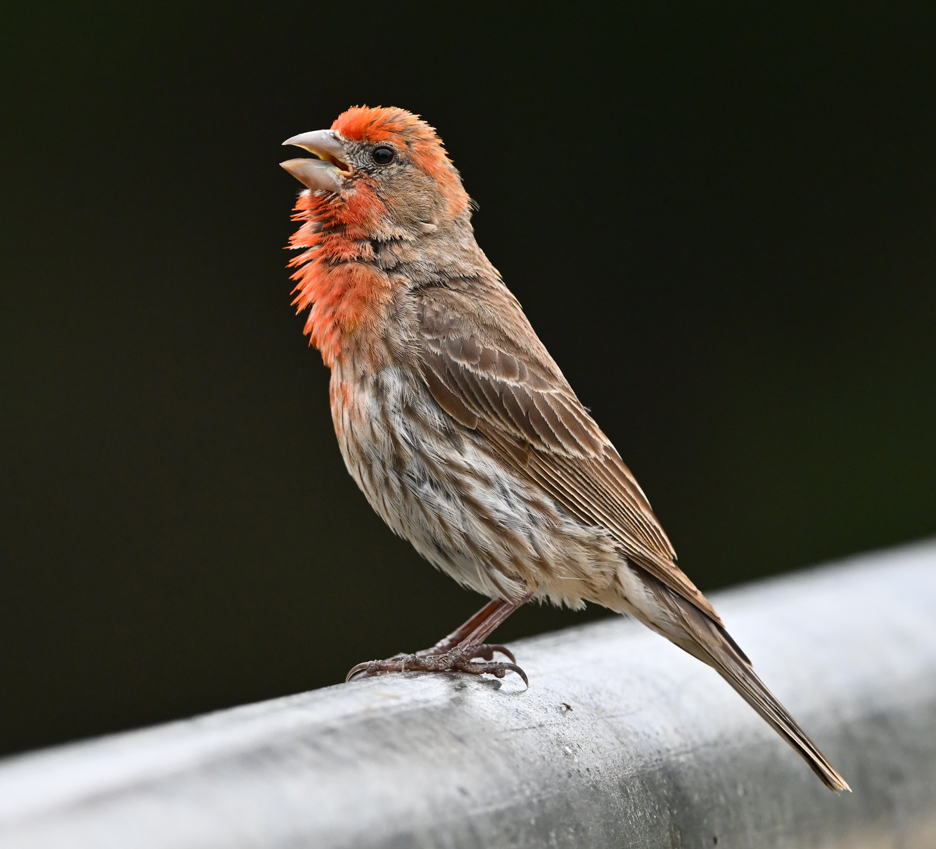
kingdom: Animalia
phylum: Chordata
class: Aves
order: Passeriformes
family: Fringillidae
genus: Haemorhous
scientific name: Haemorhous mexicanus
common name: House finch
